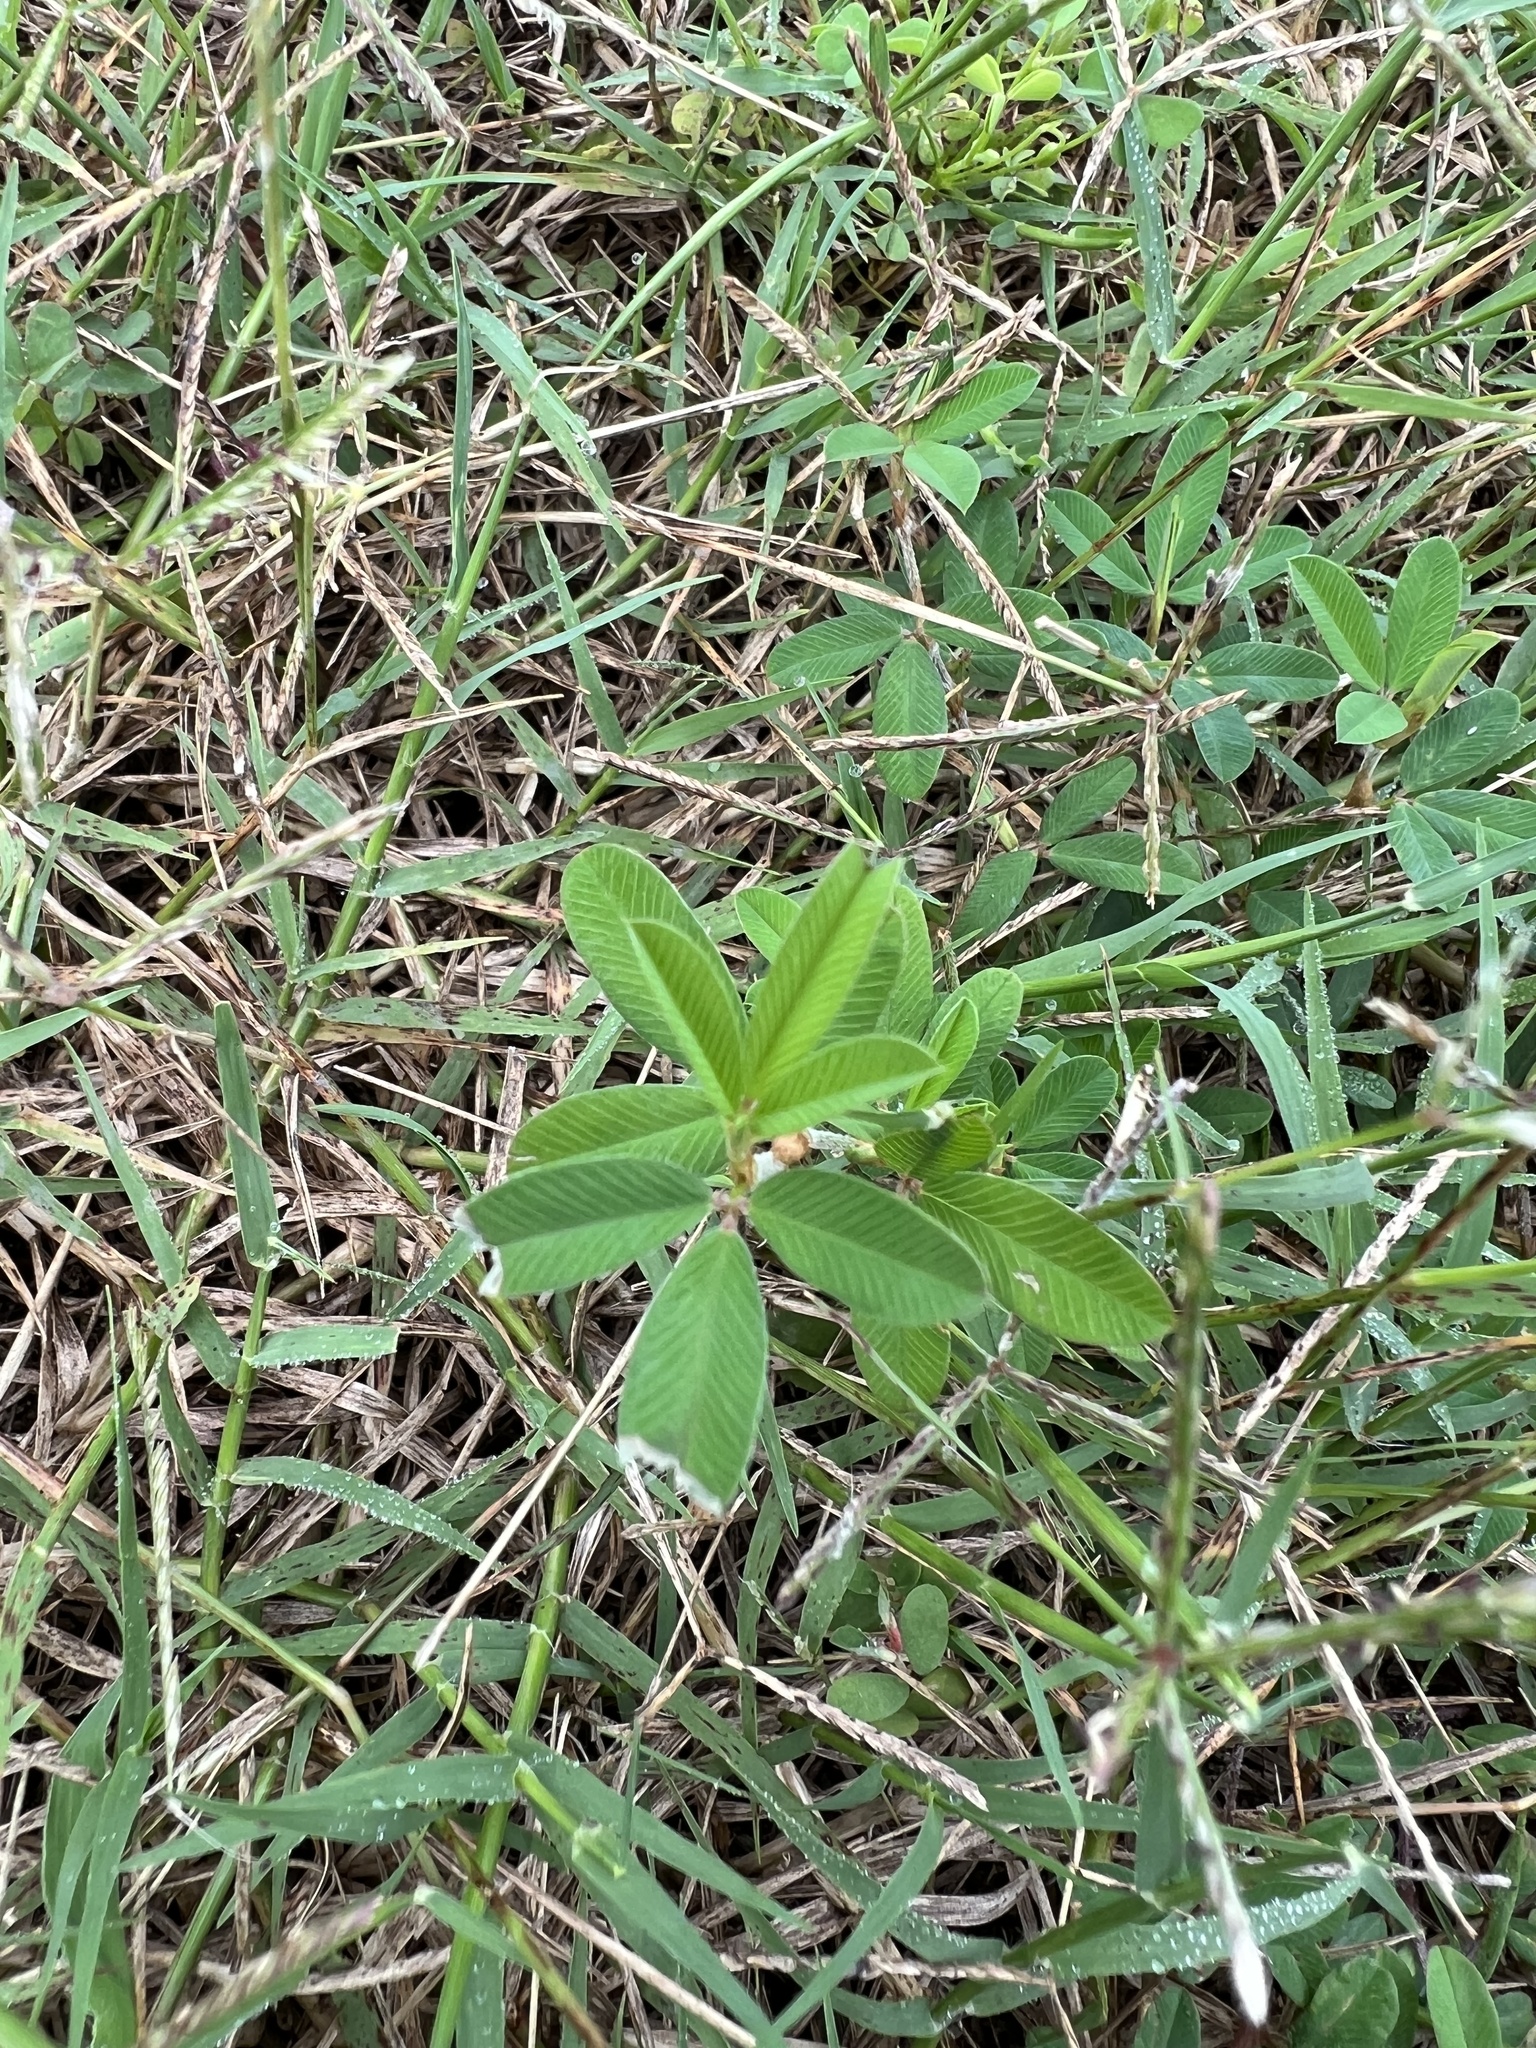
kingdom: Plantae
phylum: Tracheophyta
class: Magnoliopsida
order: Fabales
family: Fabaceae
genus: Kummerowia
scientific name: Kummerowia striata
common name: Japanese clover
